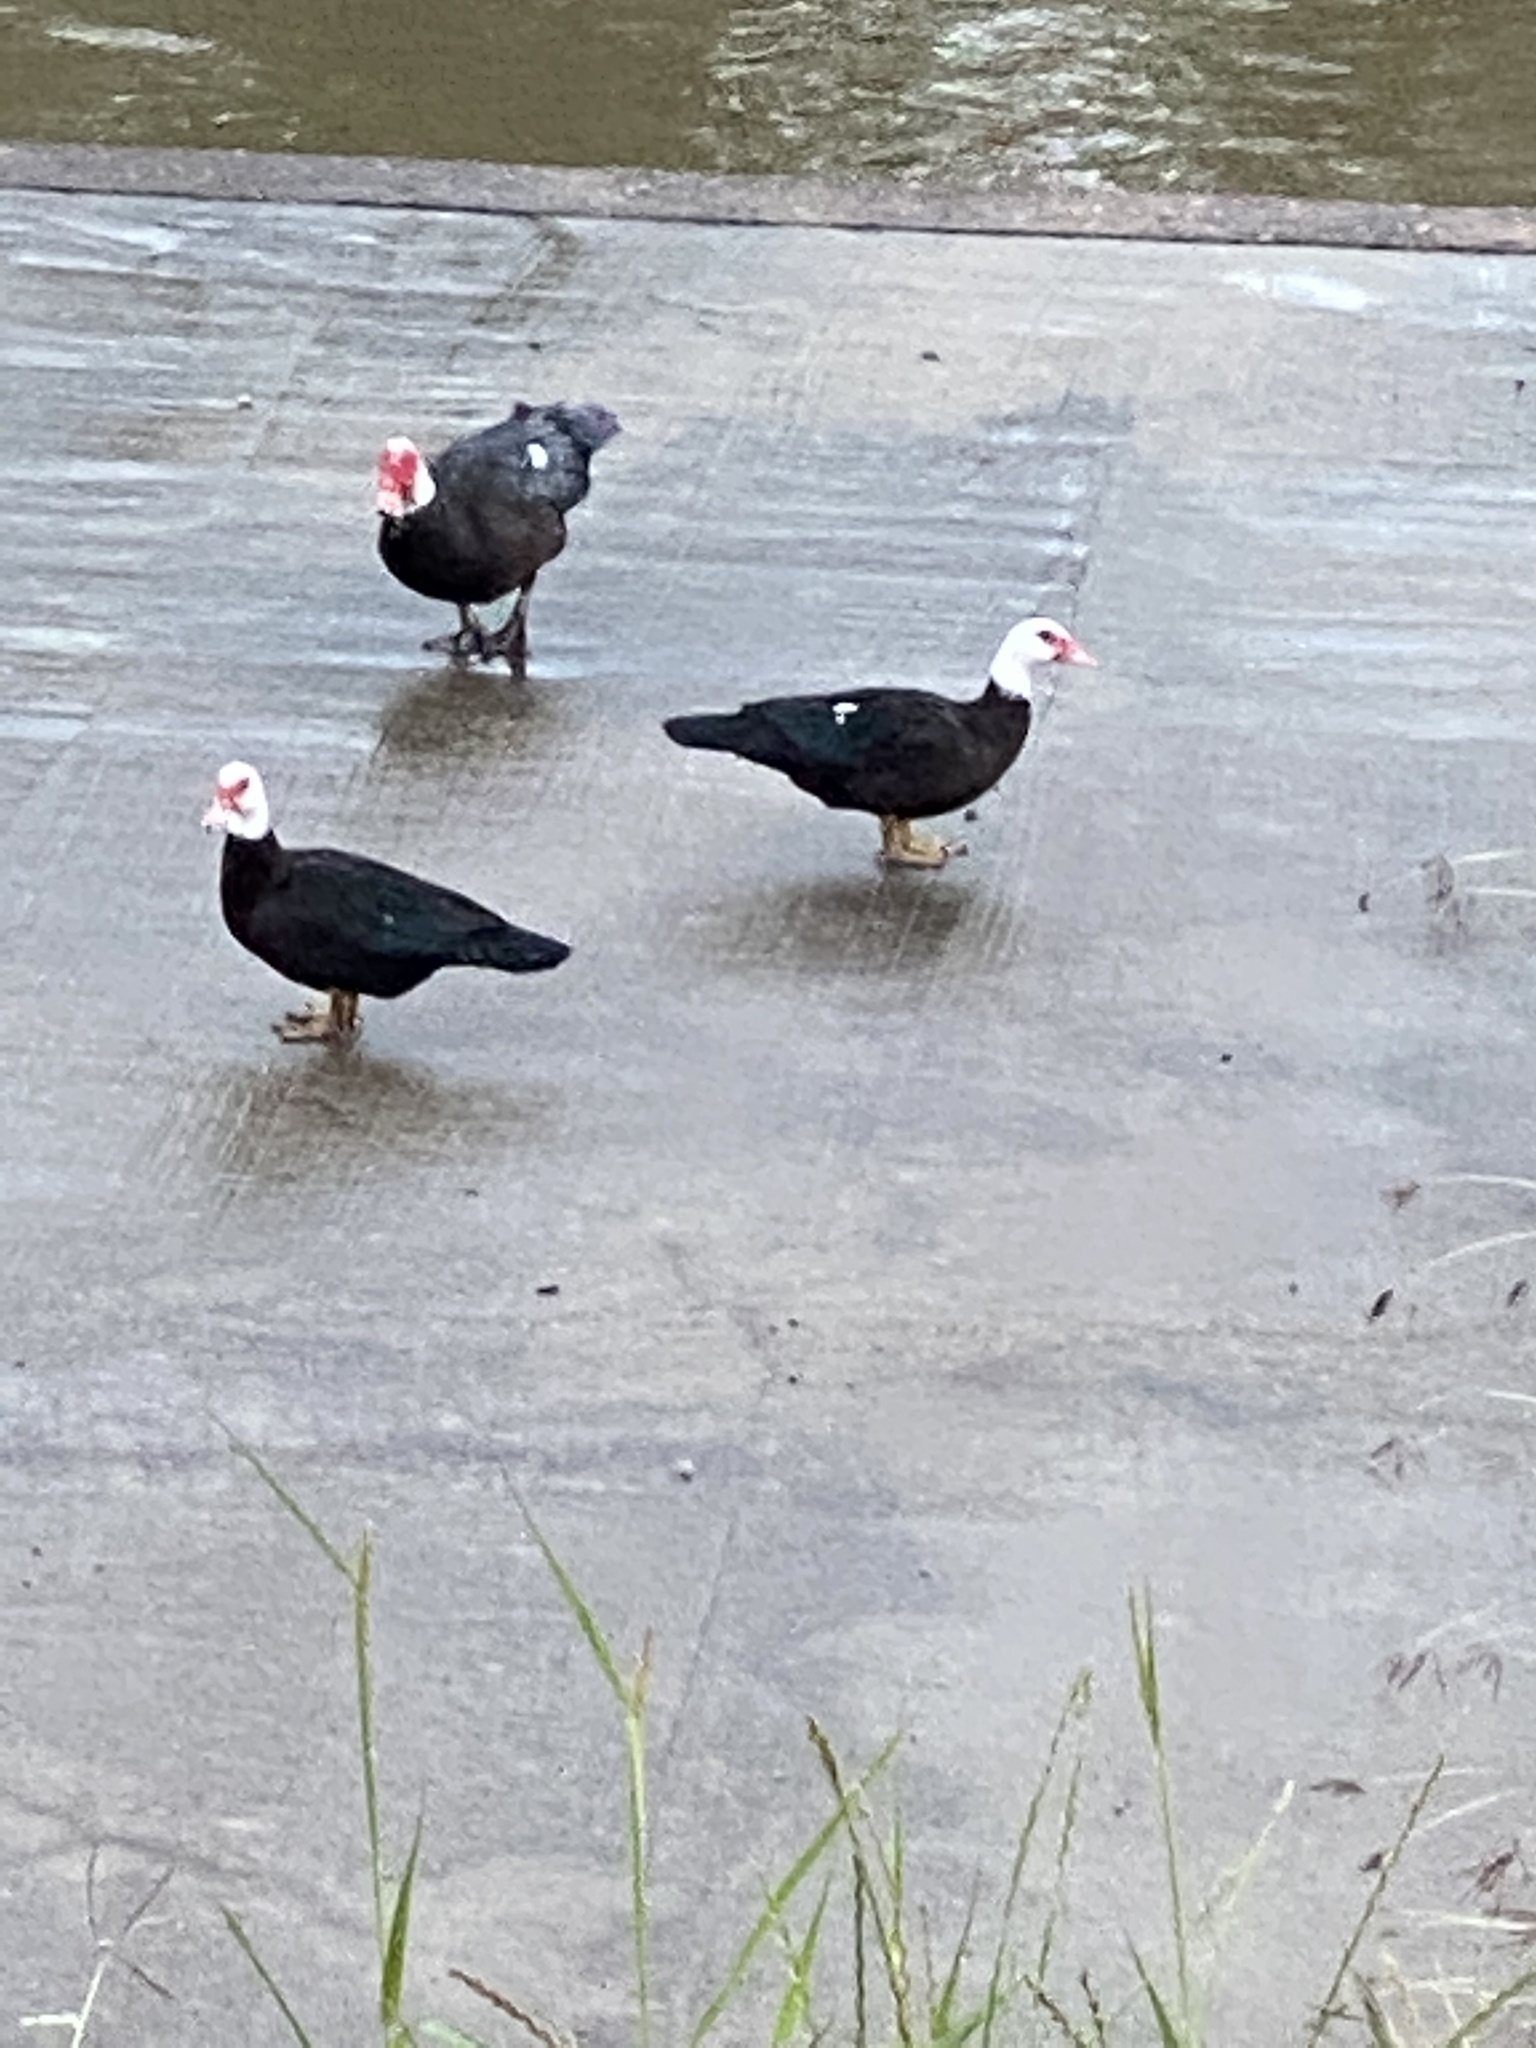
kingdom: Animalia
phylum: Chordata
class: Aves
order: Anseriformes
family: Anatidae
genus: Cairina
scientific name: Cairina moschata
